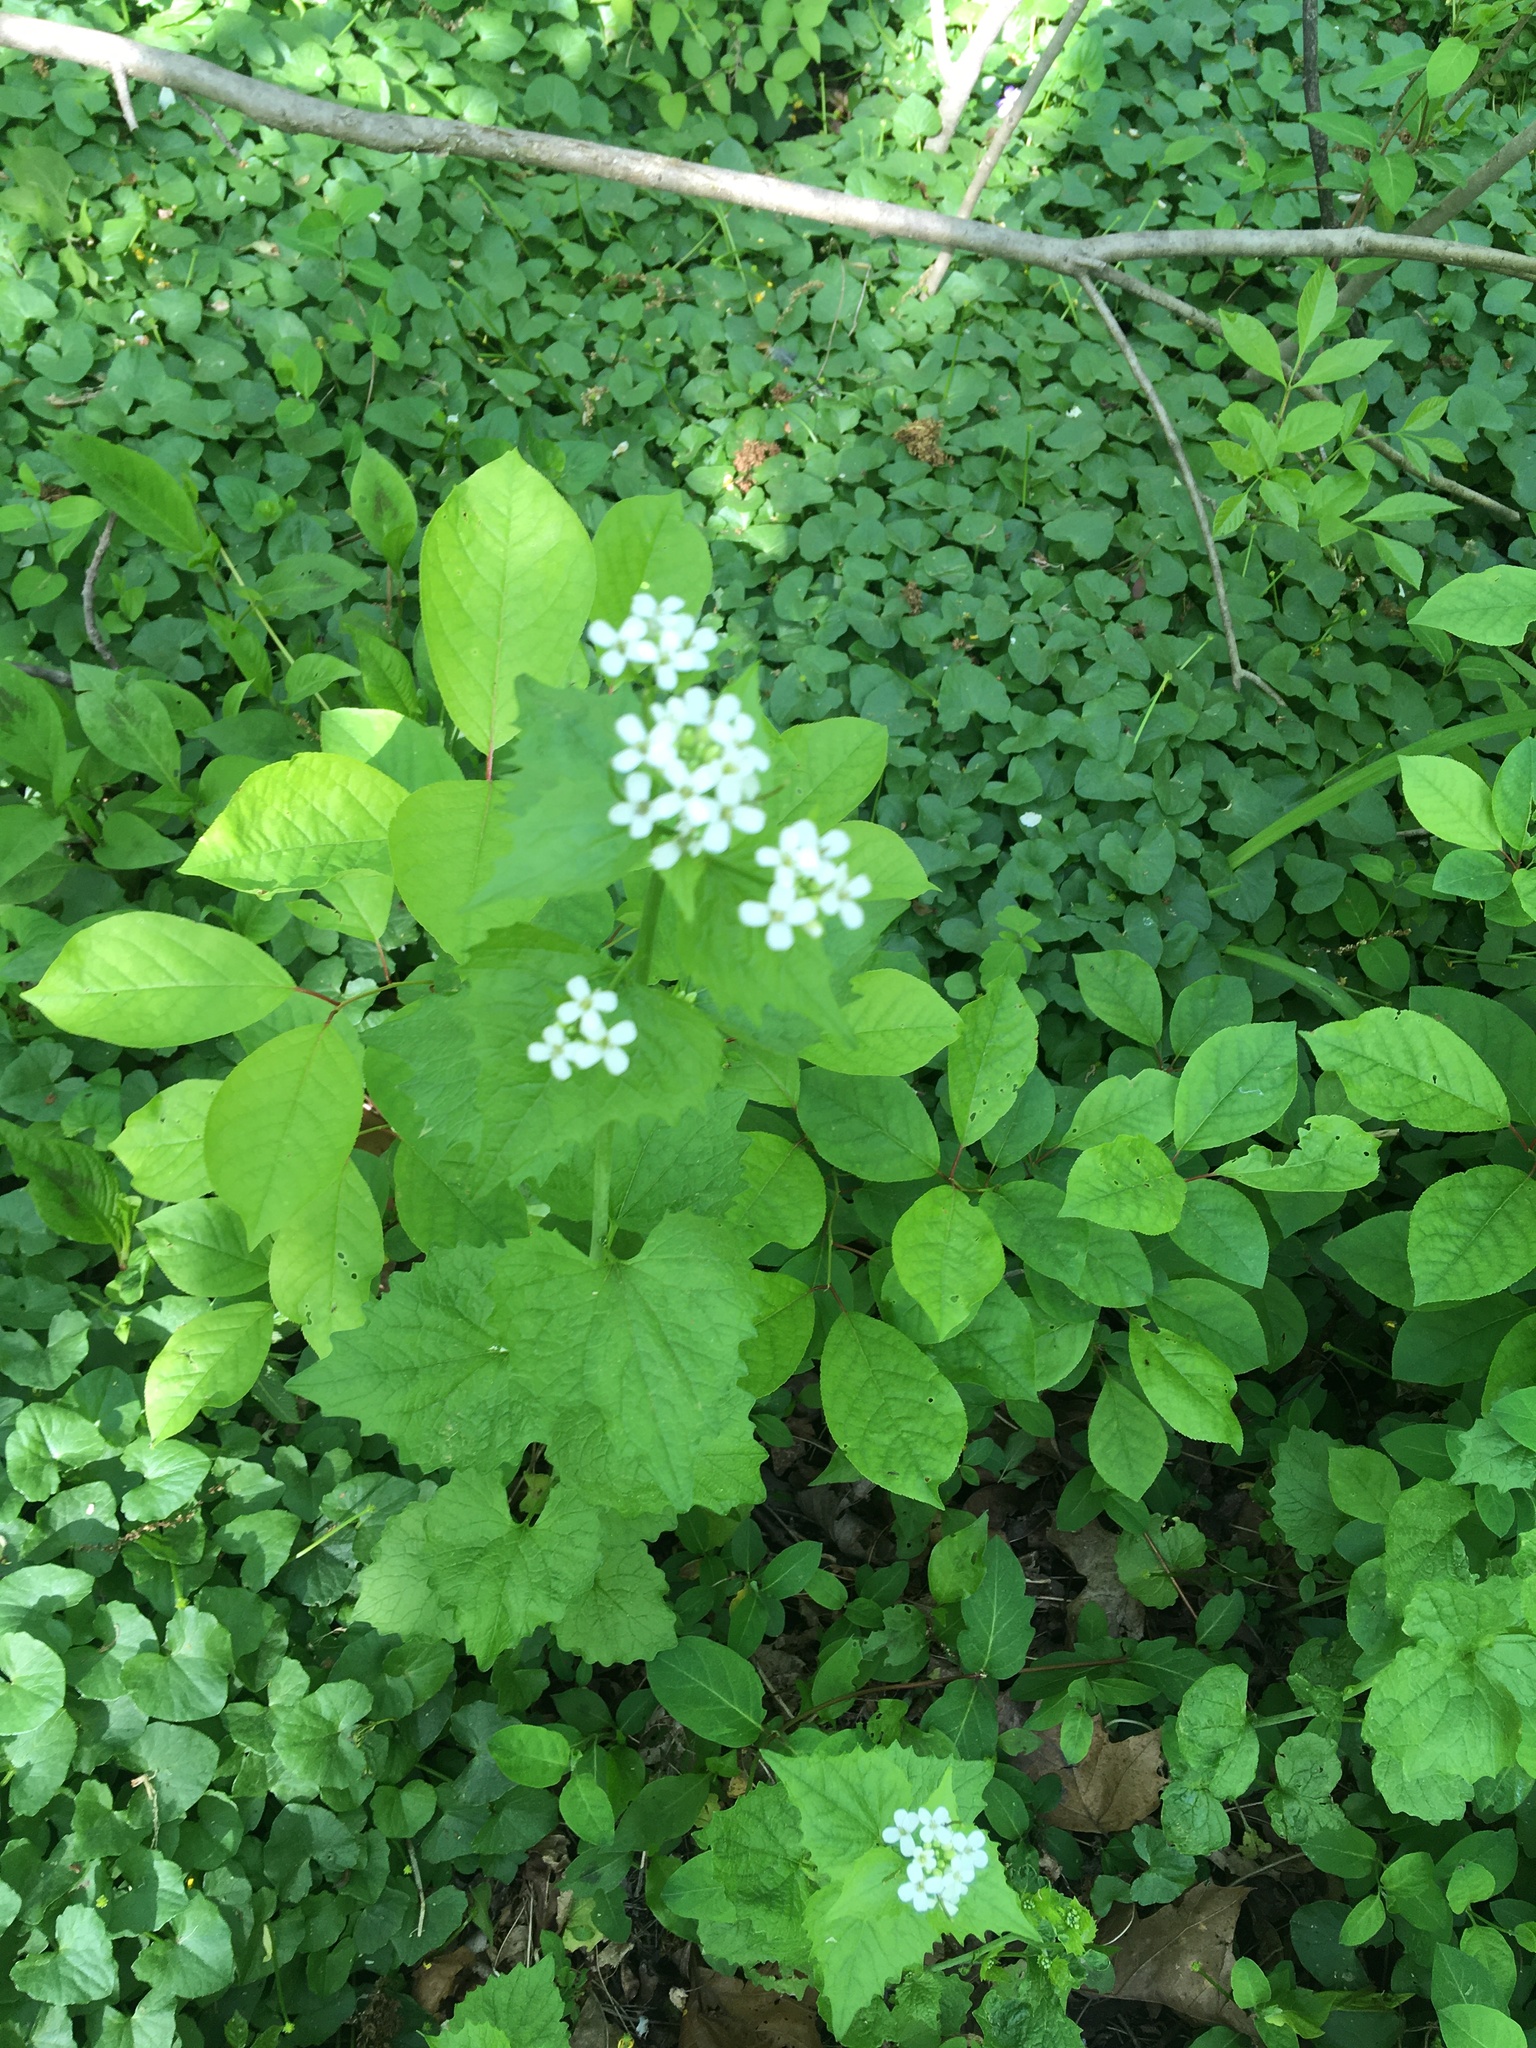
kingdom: Plantae
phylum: Tracheophyta
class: Magnoliopsida
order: Brassicales
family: Brassicaceae
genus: Alliaria
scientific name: Alliaria petiolata
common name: Garlic mustard
